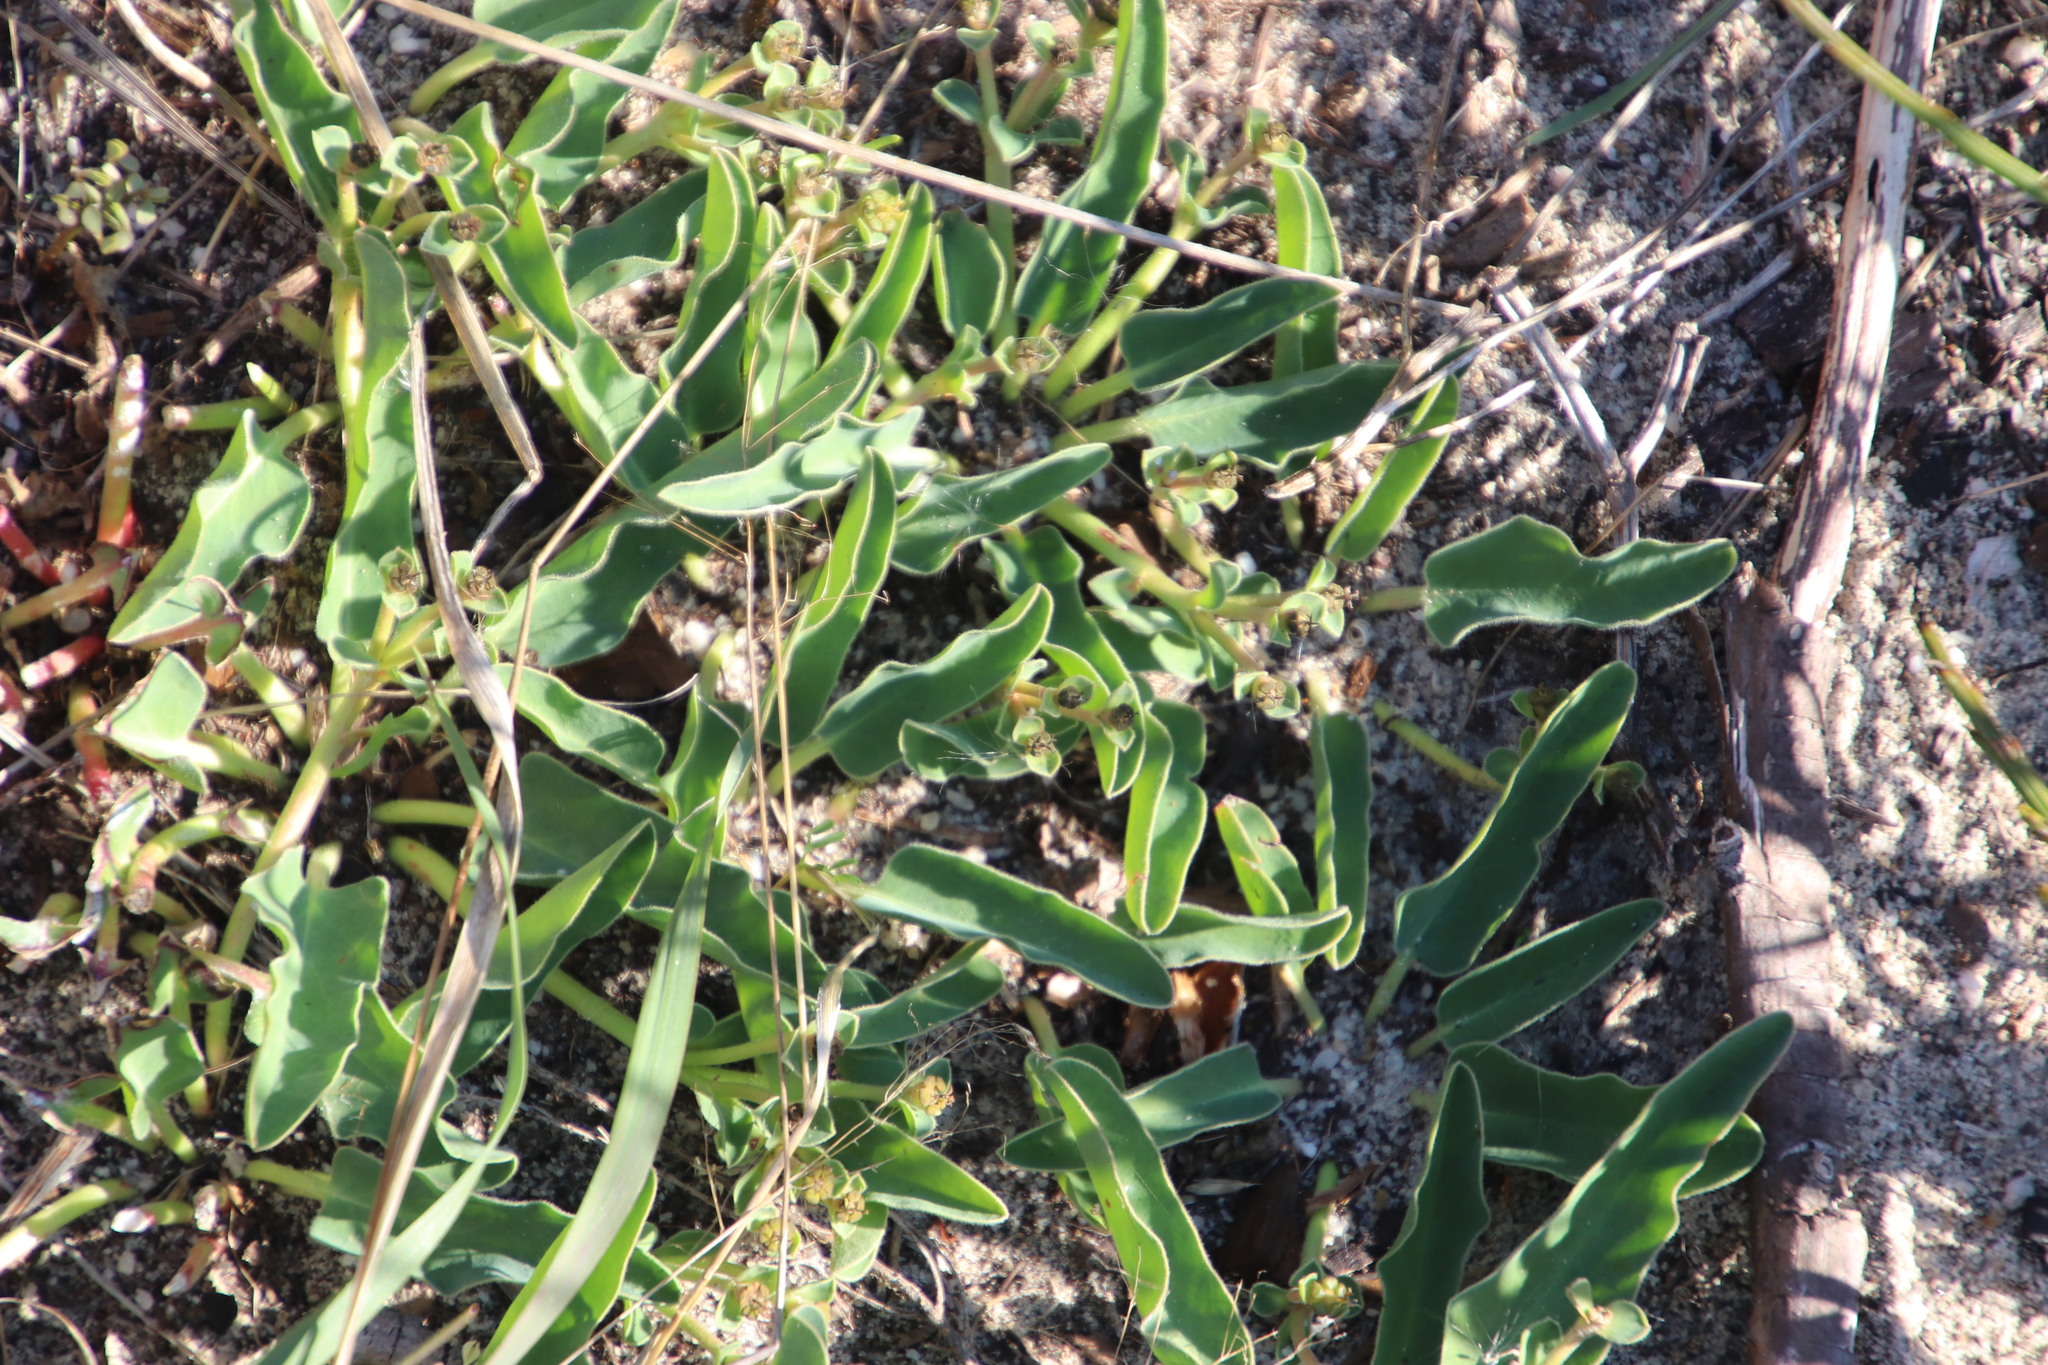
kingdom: Plantae
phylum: Tracheophyta
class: Magnoliopsida
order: Malpighiales
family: Euphorbiaceae
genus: Euphorbia
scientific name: Euphorbia tuberosa
